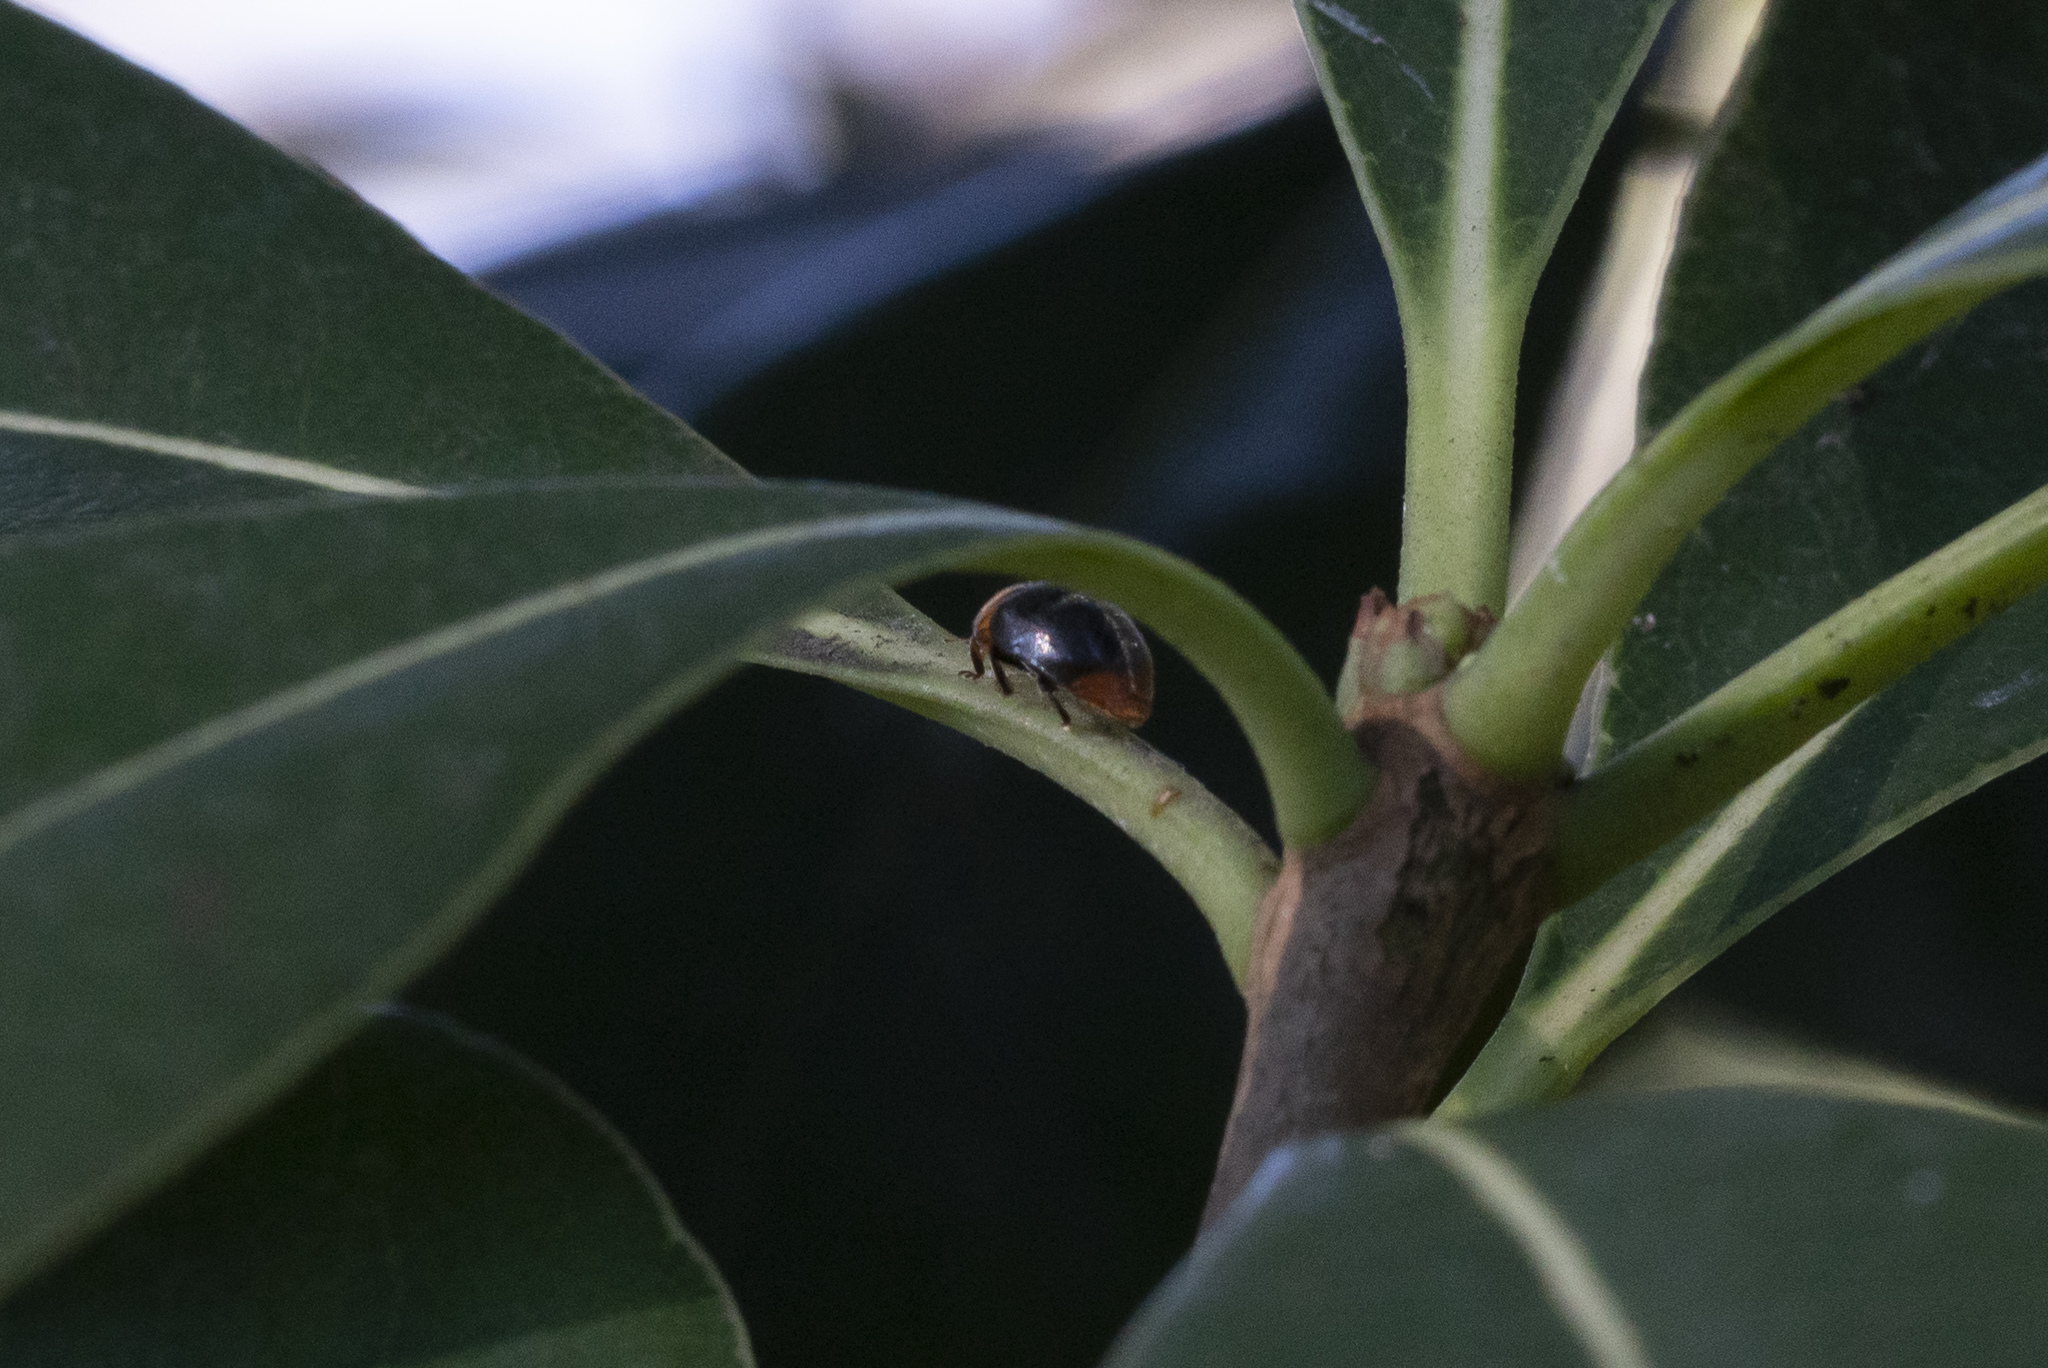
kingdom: Animalia
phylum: Arthropoda
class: Insecta
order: Coleoptera
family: Coccinellidae
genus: Cryptolaemus
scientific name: Cryptolaemus montrouzieri
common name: Mealybug destroyer
